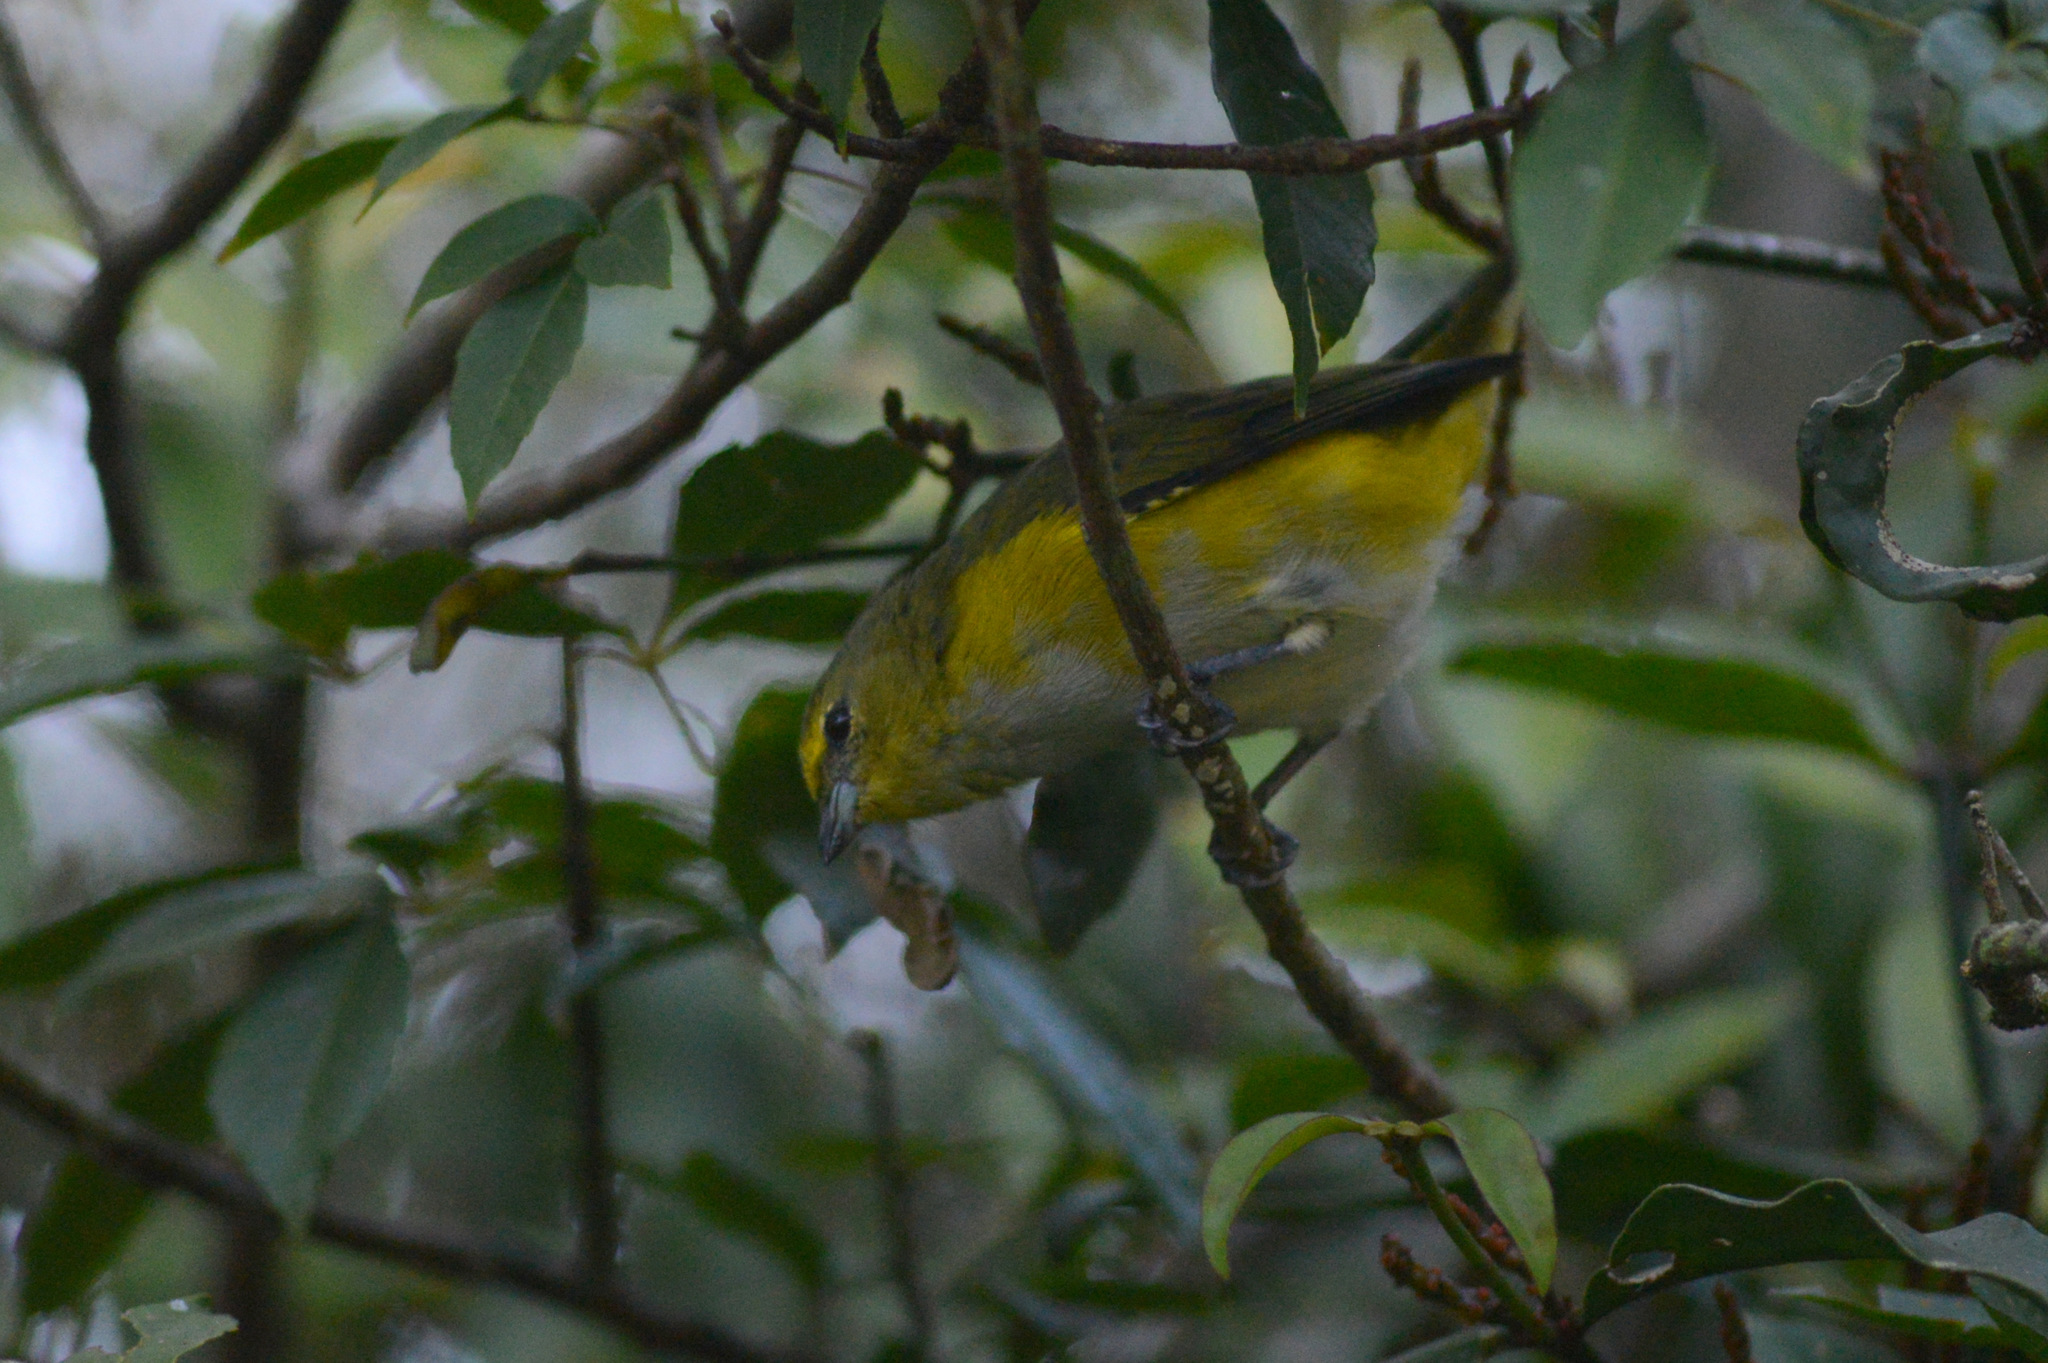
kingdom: Animalia
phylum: Chordata
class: Aves
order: Passeriformes
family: Fringillidae
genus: Euphonia
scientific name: Euphonia chlorotica
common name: Purple-throated euphonia
